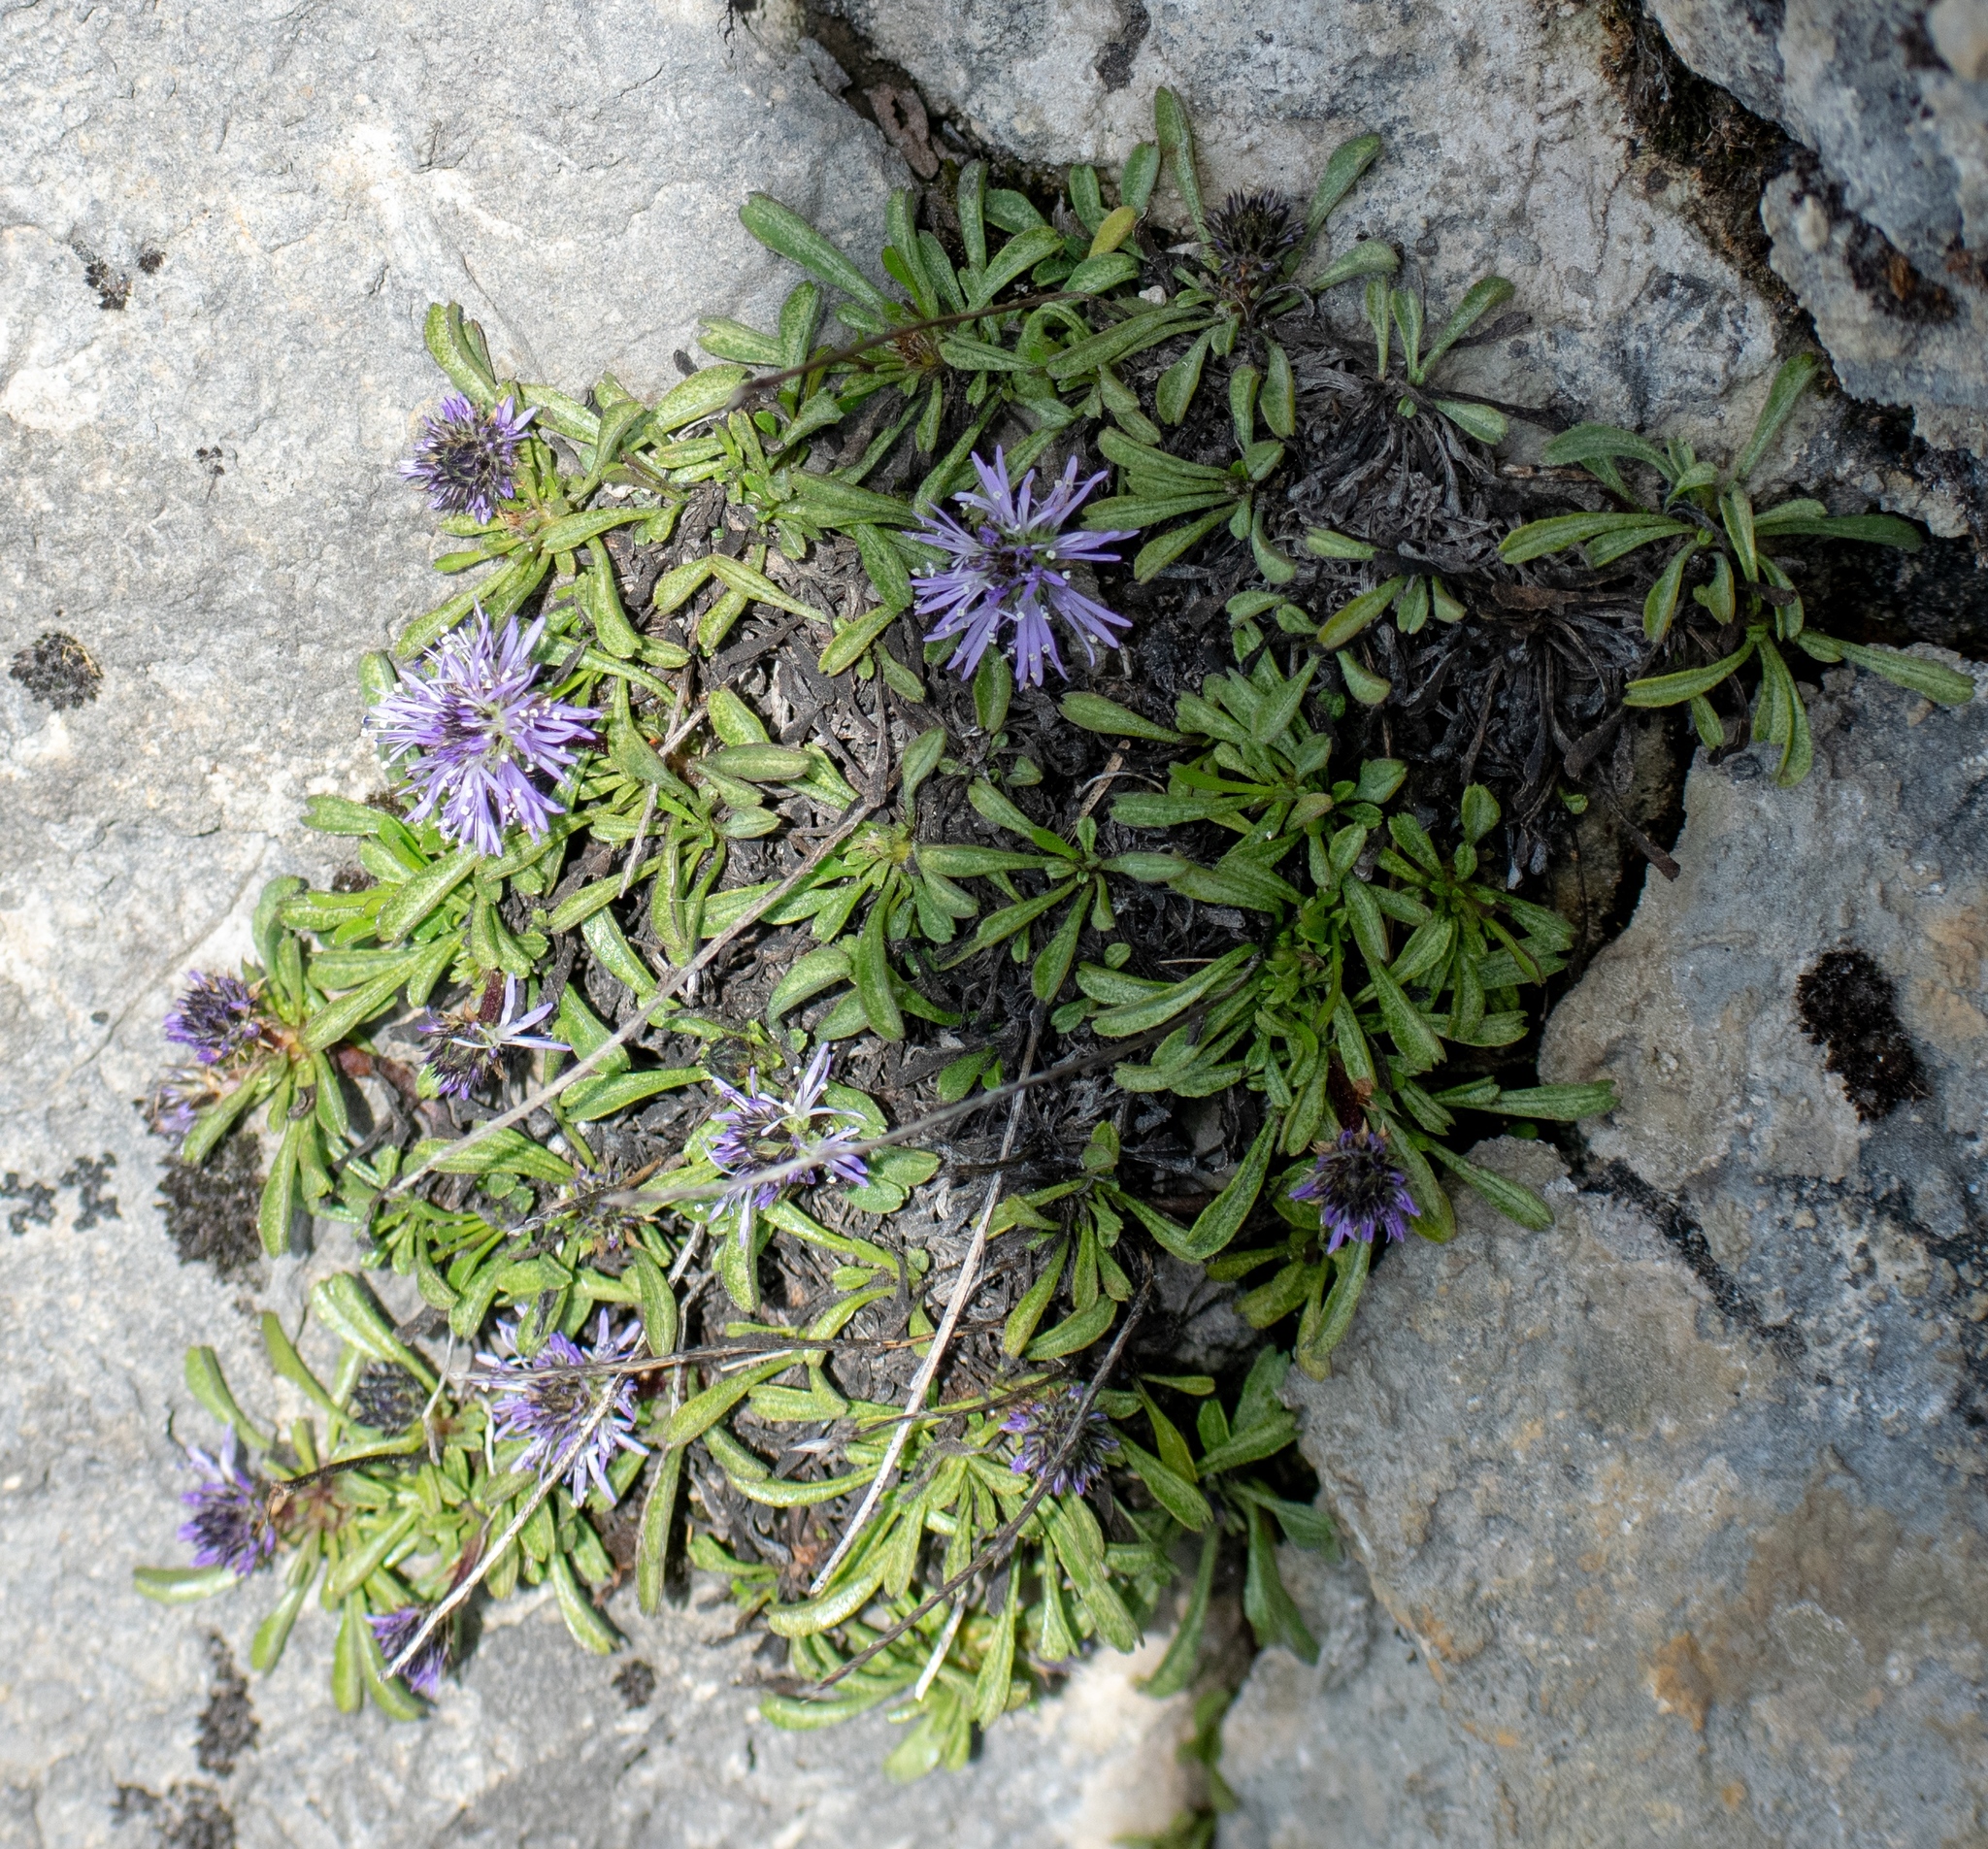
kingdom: Plantae
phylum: Tracheophyta
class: Magnoliopsida
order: Lamiales
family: Plantaginaceae
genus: Globularia
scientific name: Globularia cordifolia
